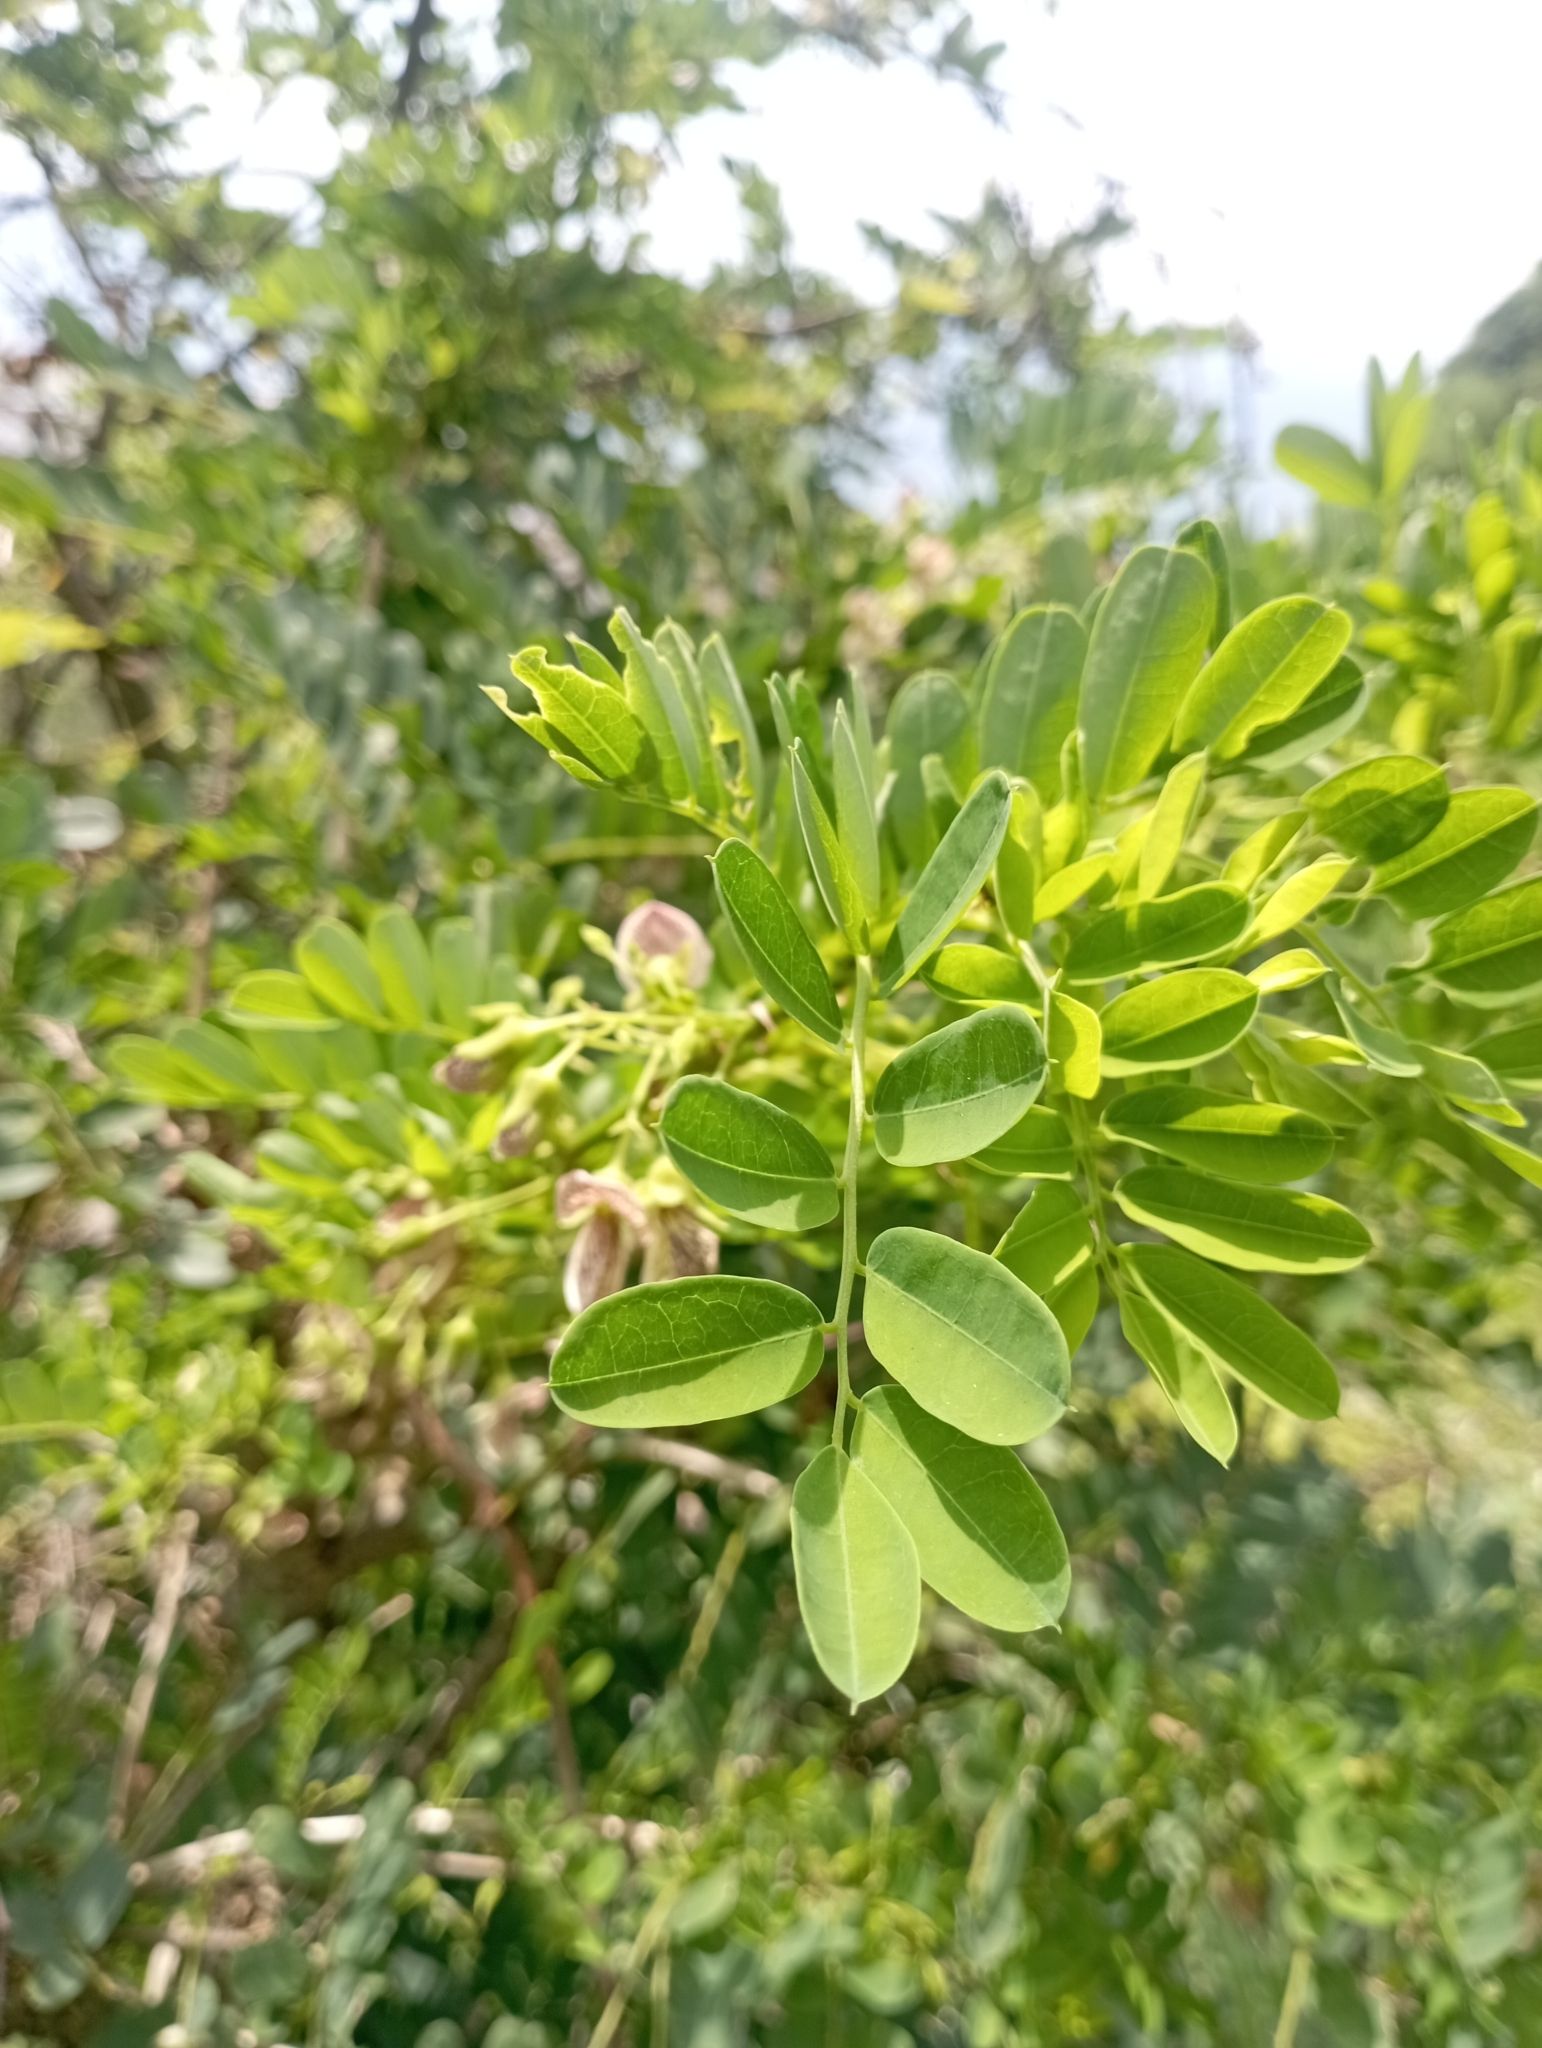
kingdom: Plantae
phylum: Tracheophyta
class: Magnoliopsida
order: Fabales
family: Fabaceae
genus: Ormocarpum
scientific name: Ormocarpum cochinchinense
